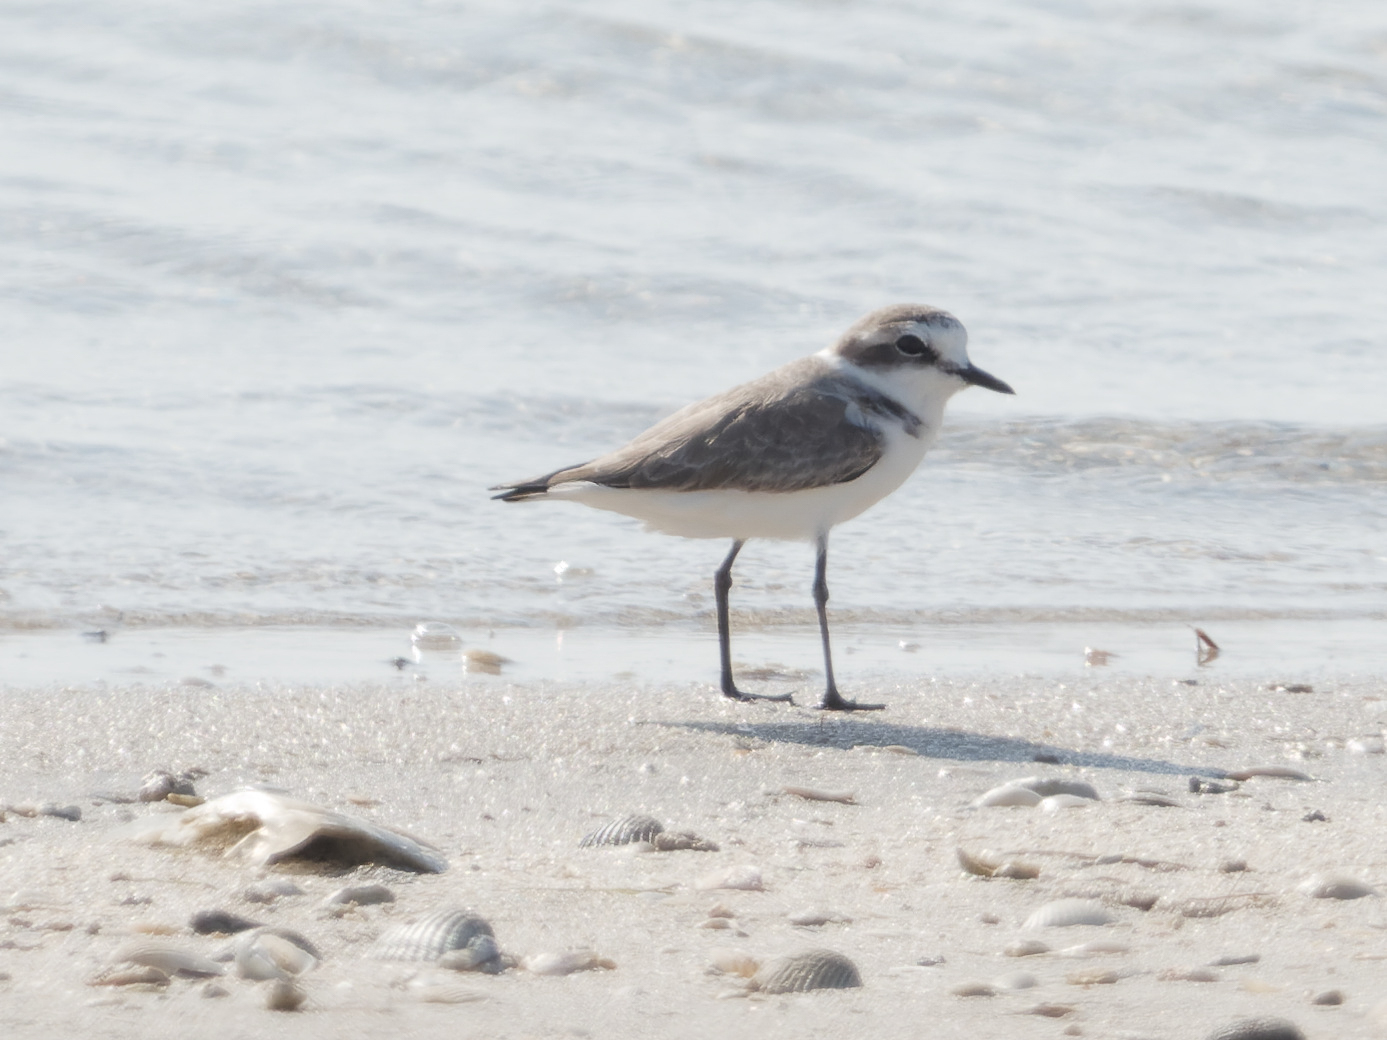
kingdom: Animalia
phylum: Chordata
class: Aves
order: Charadriiformes
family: Charadriidae
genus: Charadrius
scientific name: Charadrius alexandrinus
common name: Kentish plover
